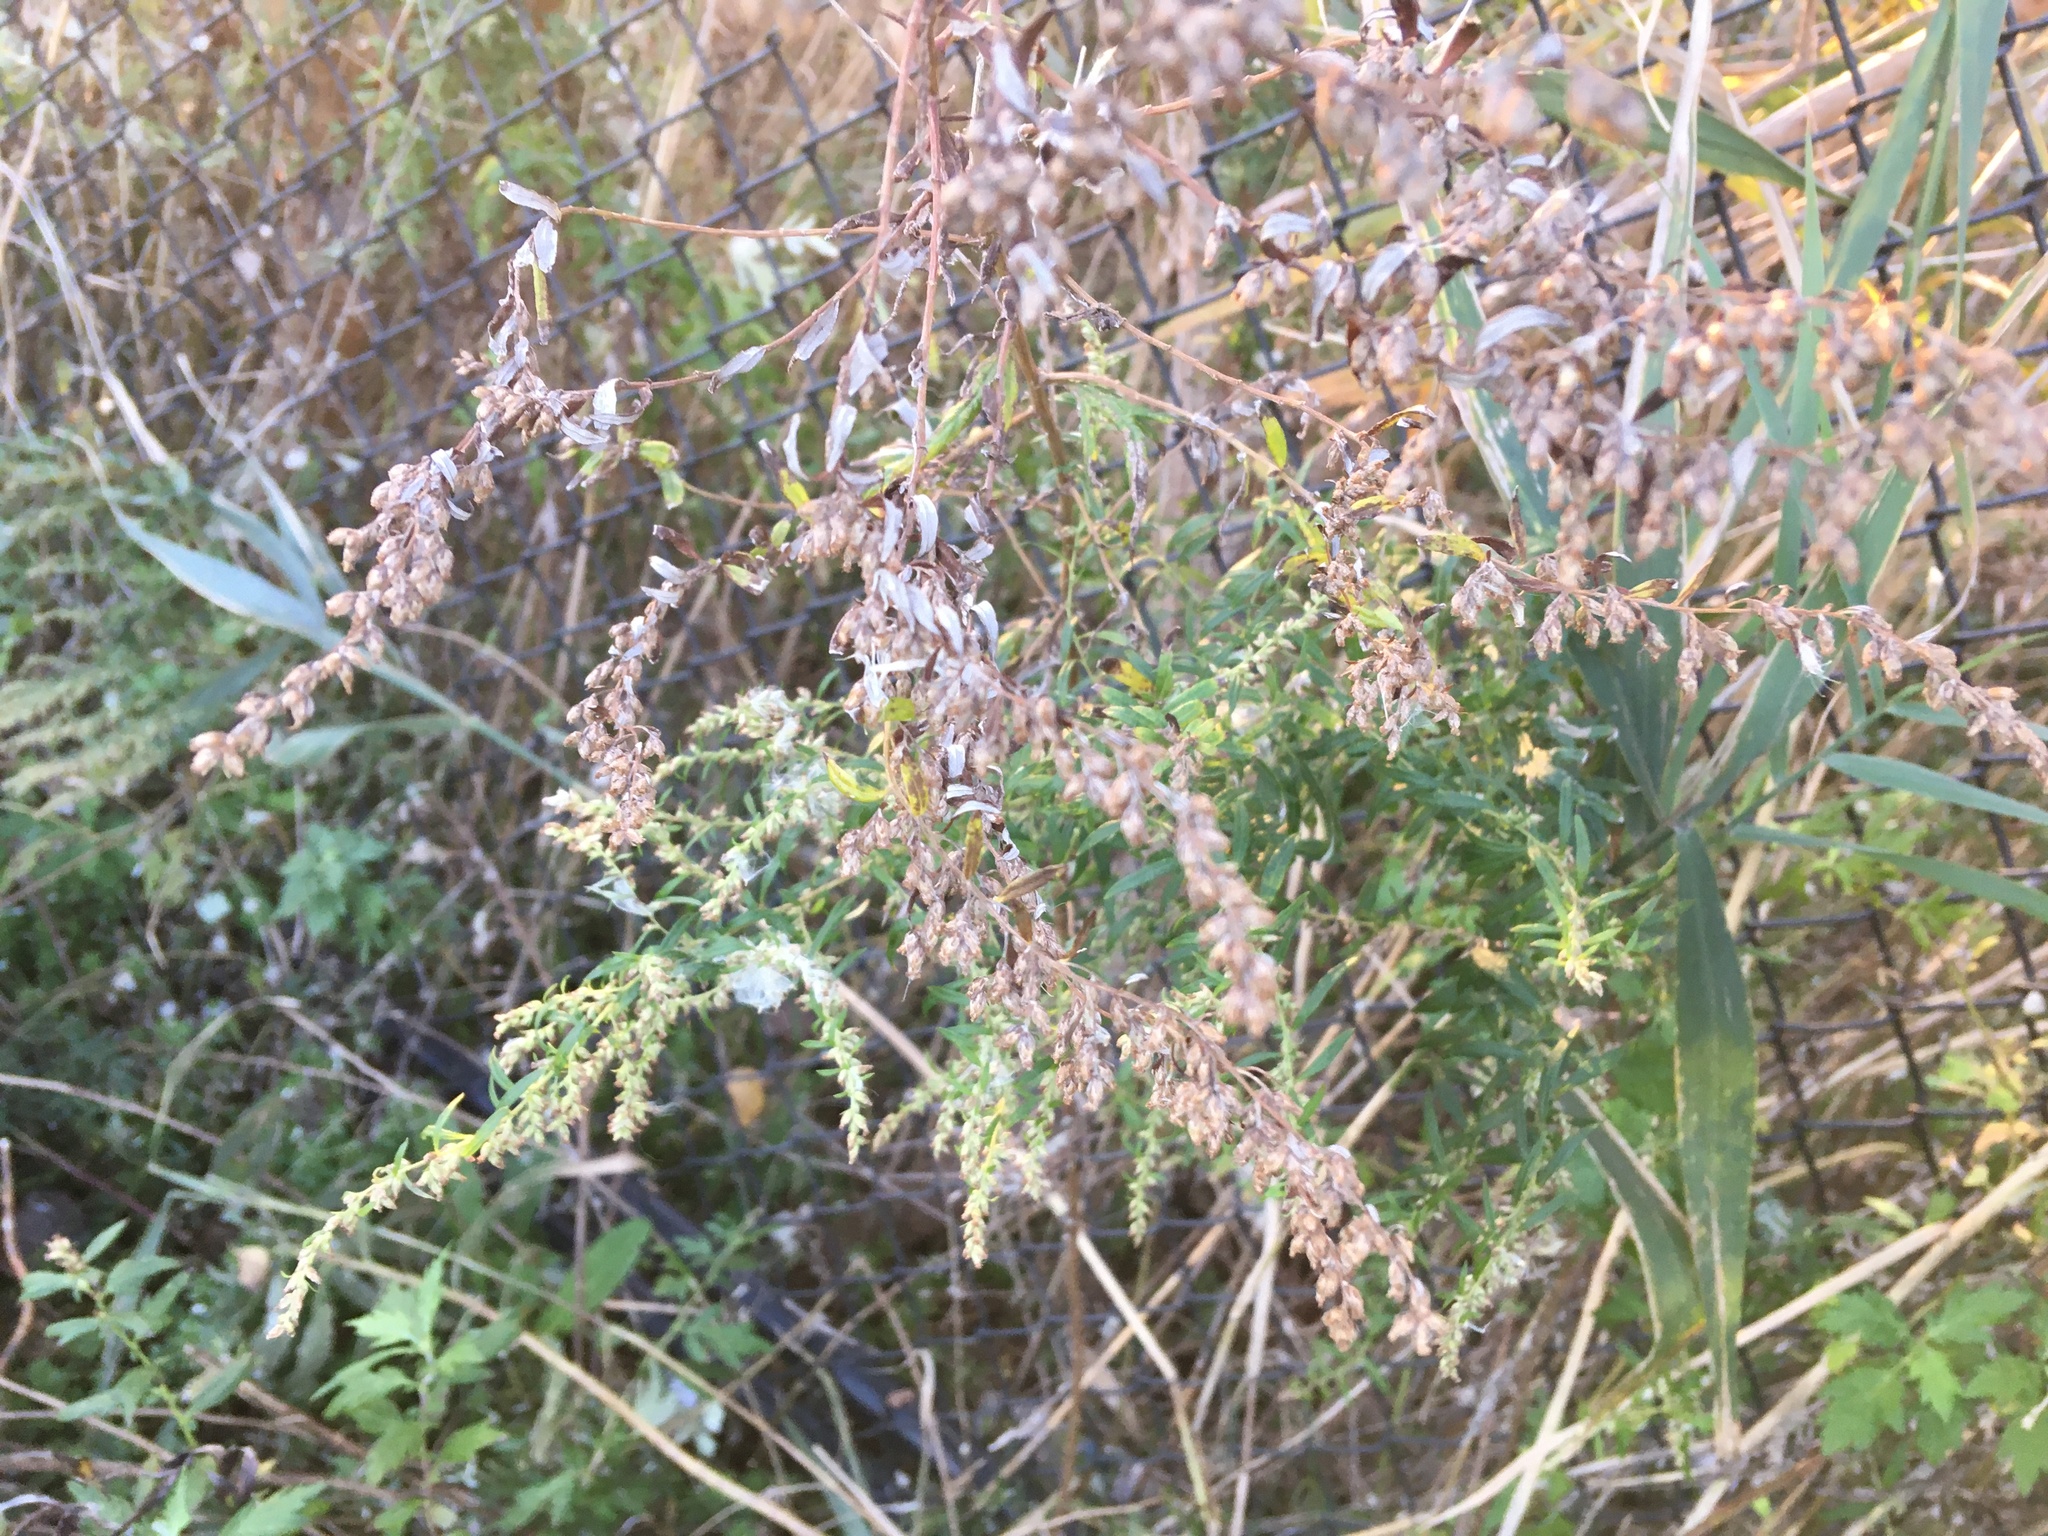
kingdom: Plantae
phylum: Tracheophyta
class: Magnoliopsida
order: Asterales
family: Asteraceae
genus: Artemisia
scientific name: Artemisia vulgaris
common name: Mugwort
